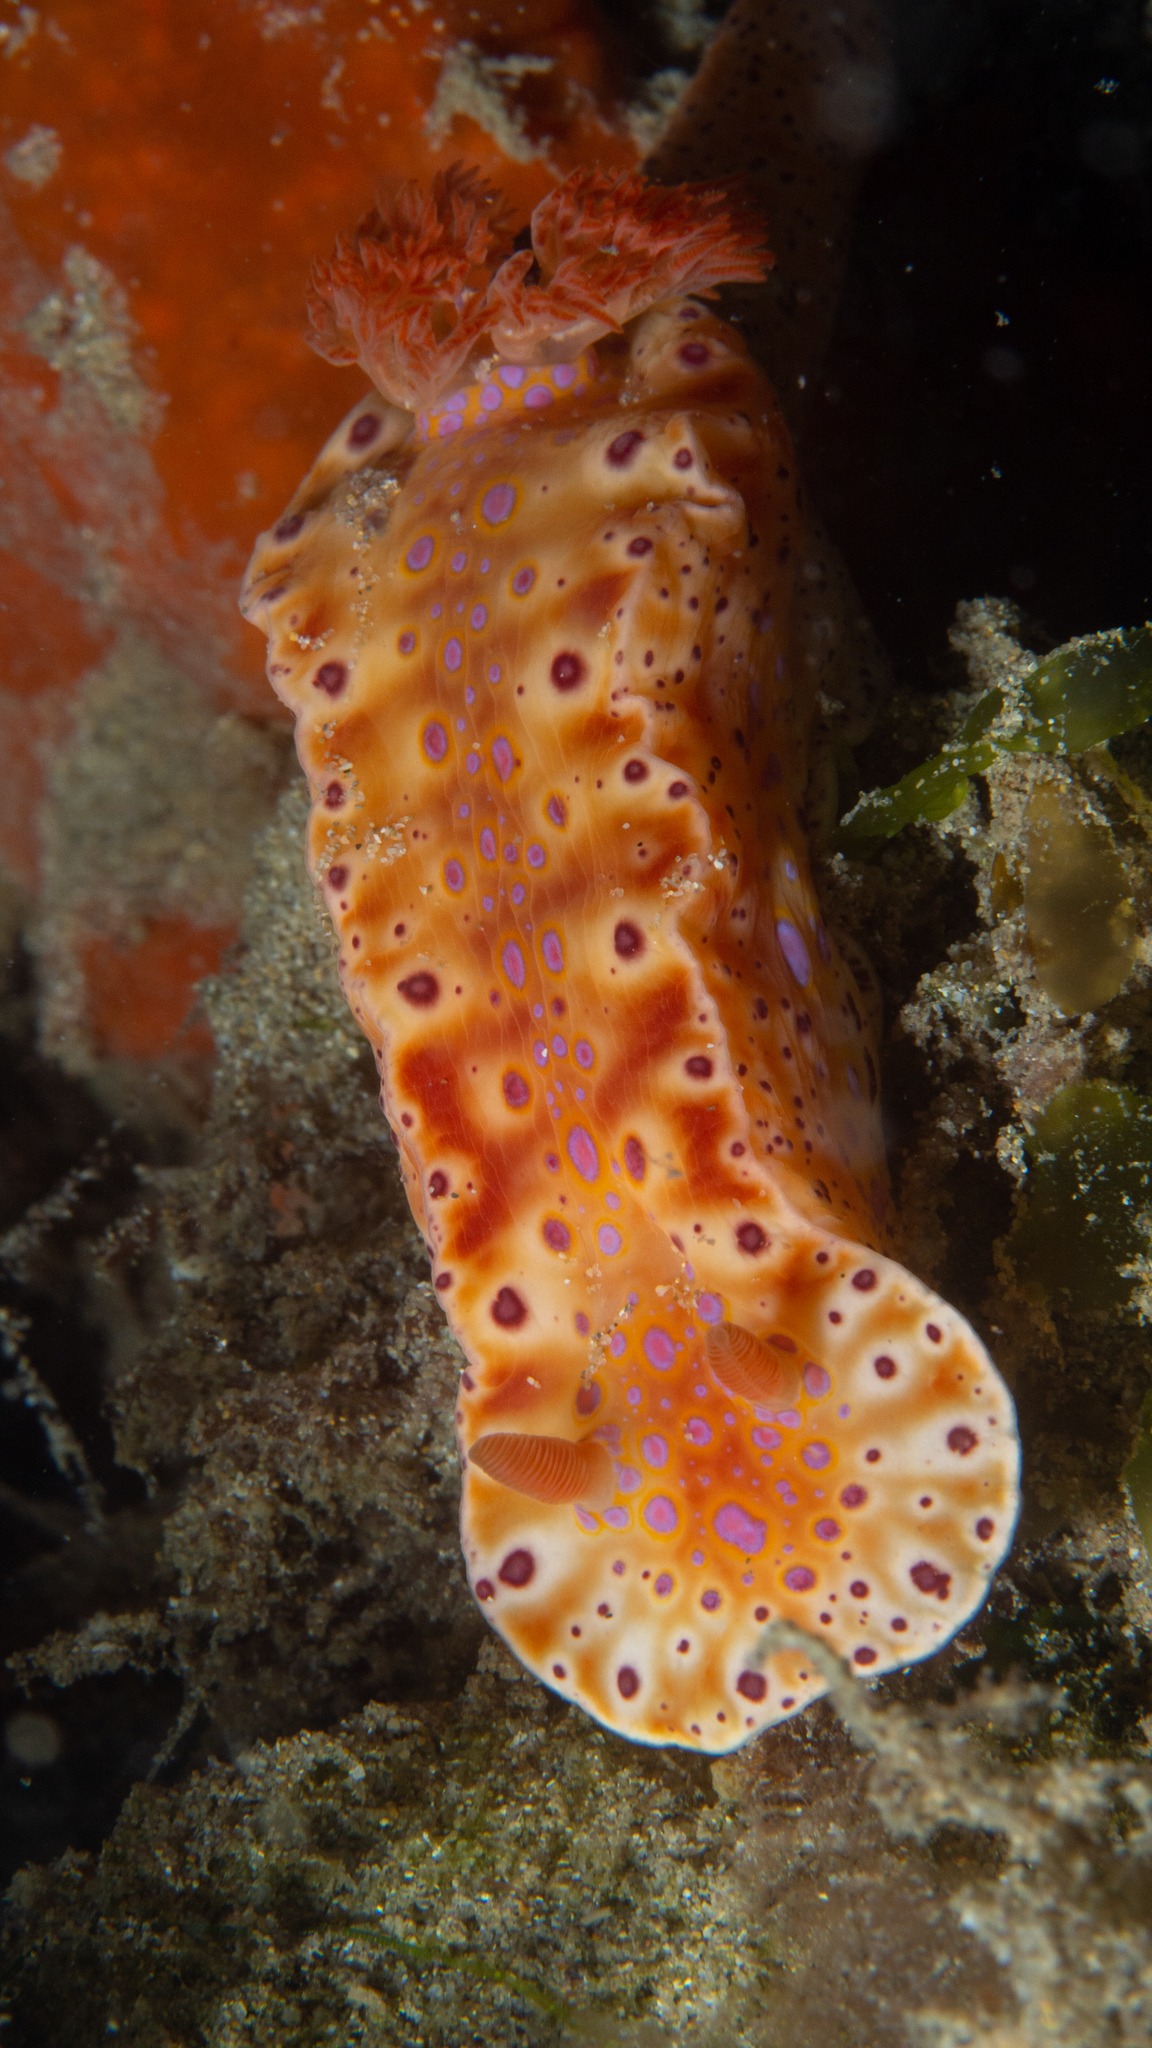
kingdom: Animalia
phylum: Mollusca
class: Gastropoda
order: Nudibranchia
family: Chromodorididae
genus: Ceratosoma
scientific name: Ceratosoma brevicaudatum
